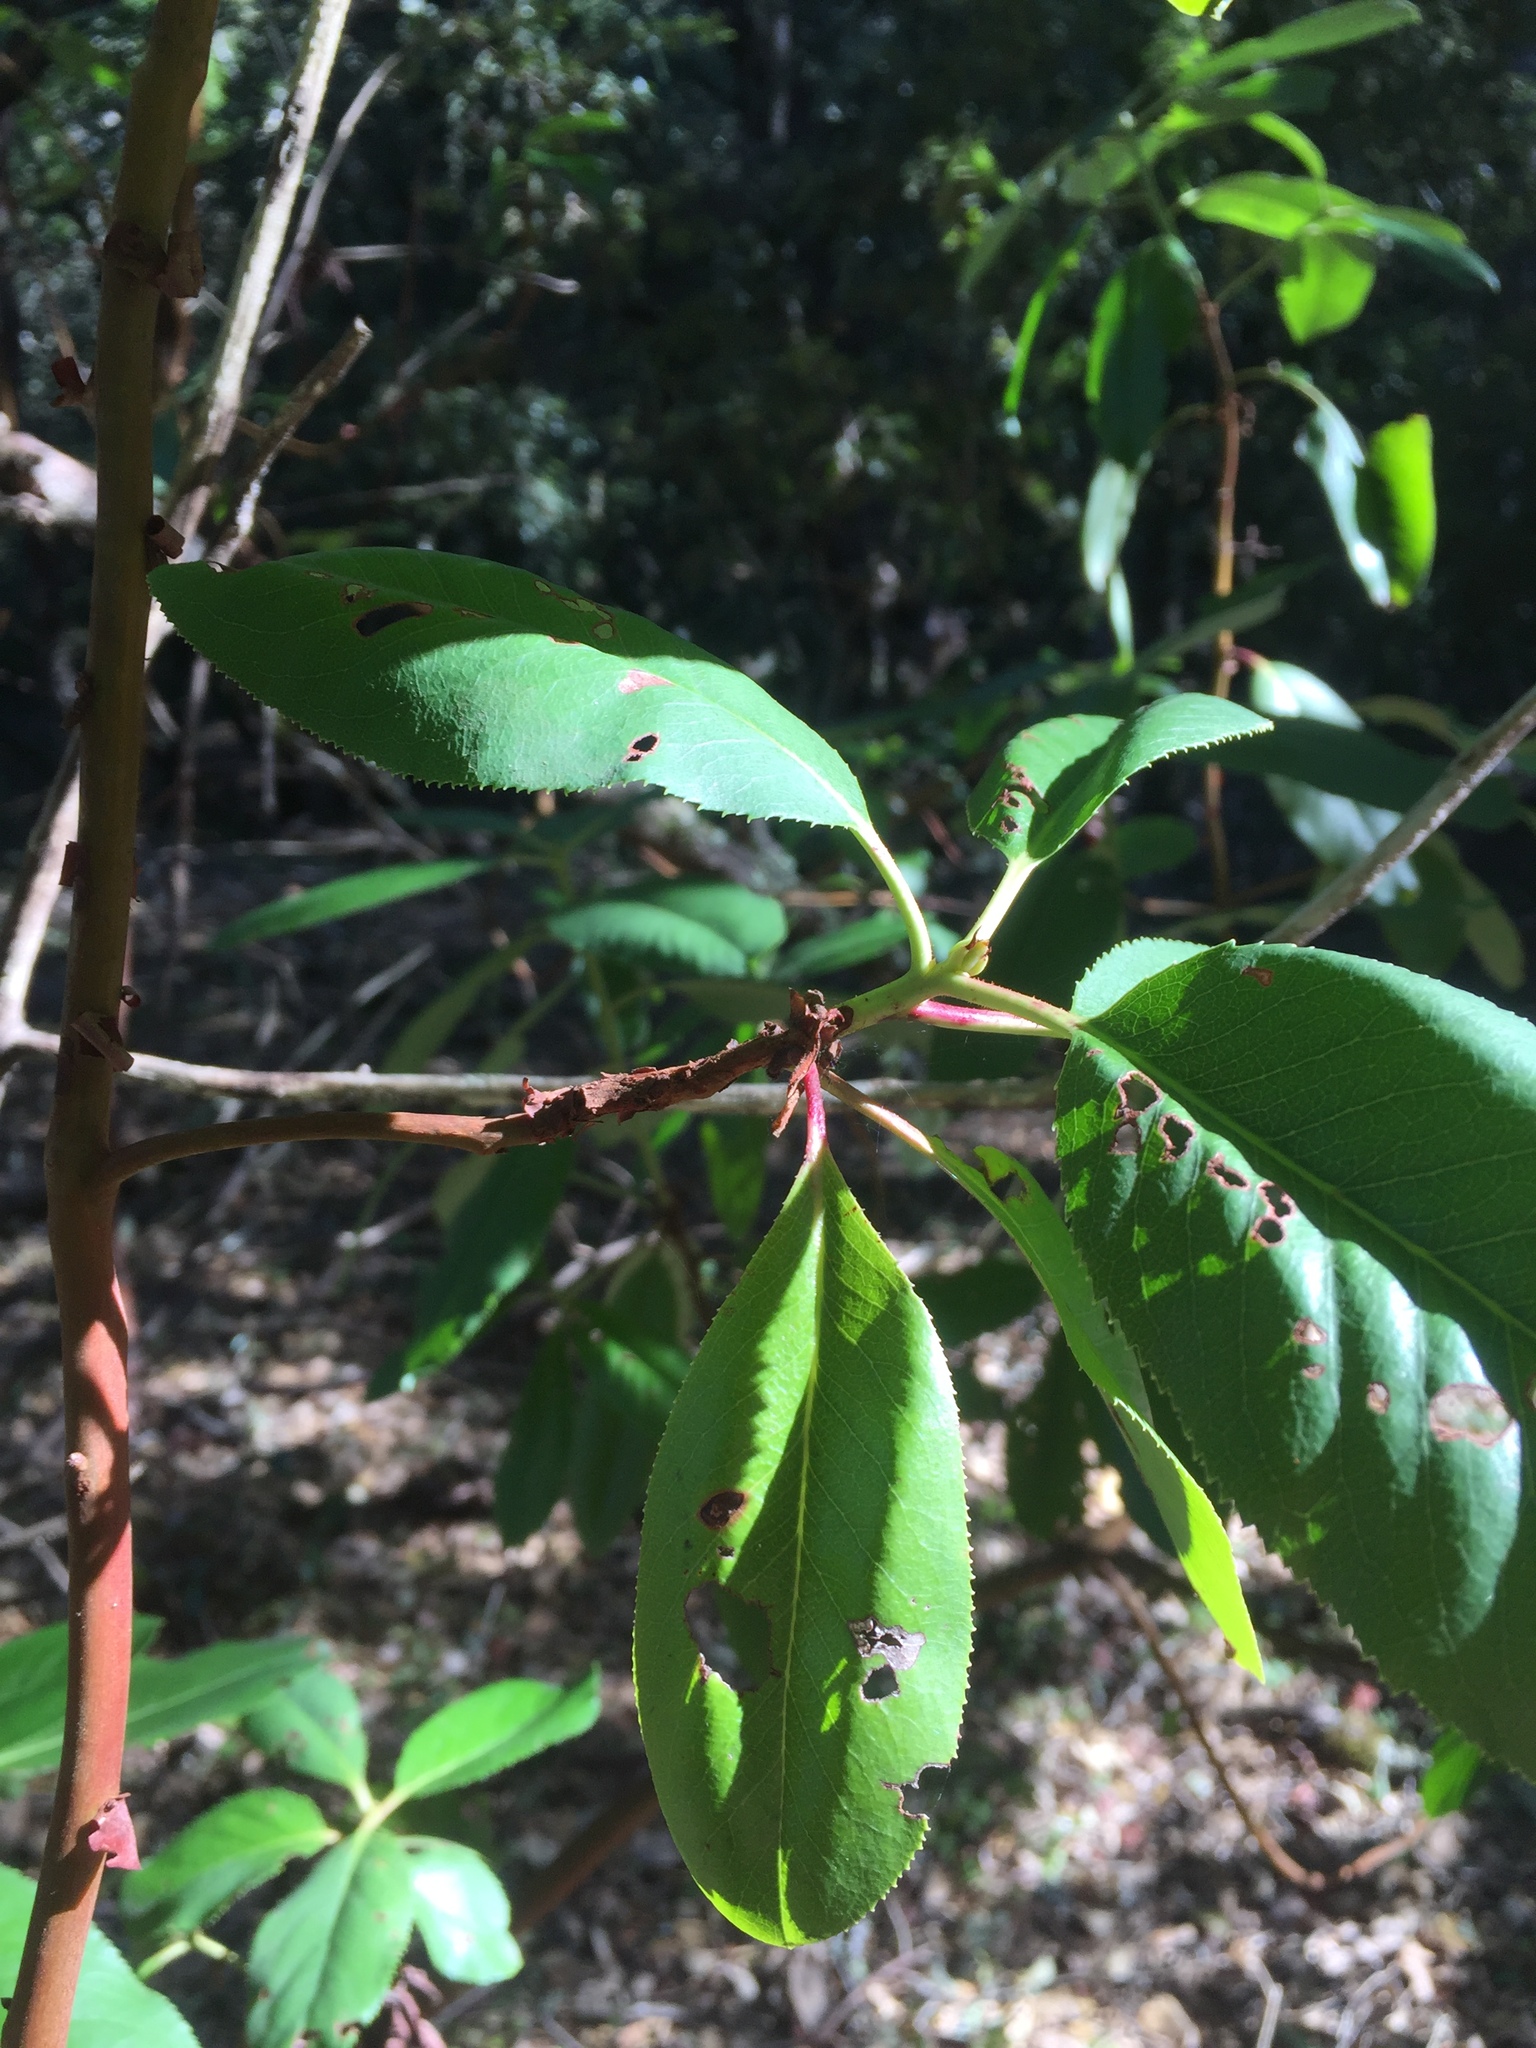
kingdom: Plantae
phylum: Tracheophyta
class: Magnoliopsida
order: Ericales
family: Ericaceae
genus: Arbutus
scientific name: Arbutus menziesii
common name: Pacific madrone
